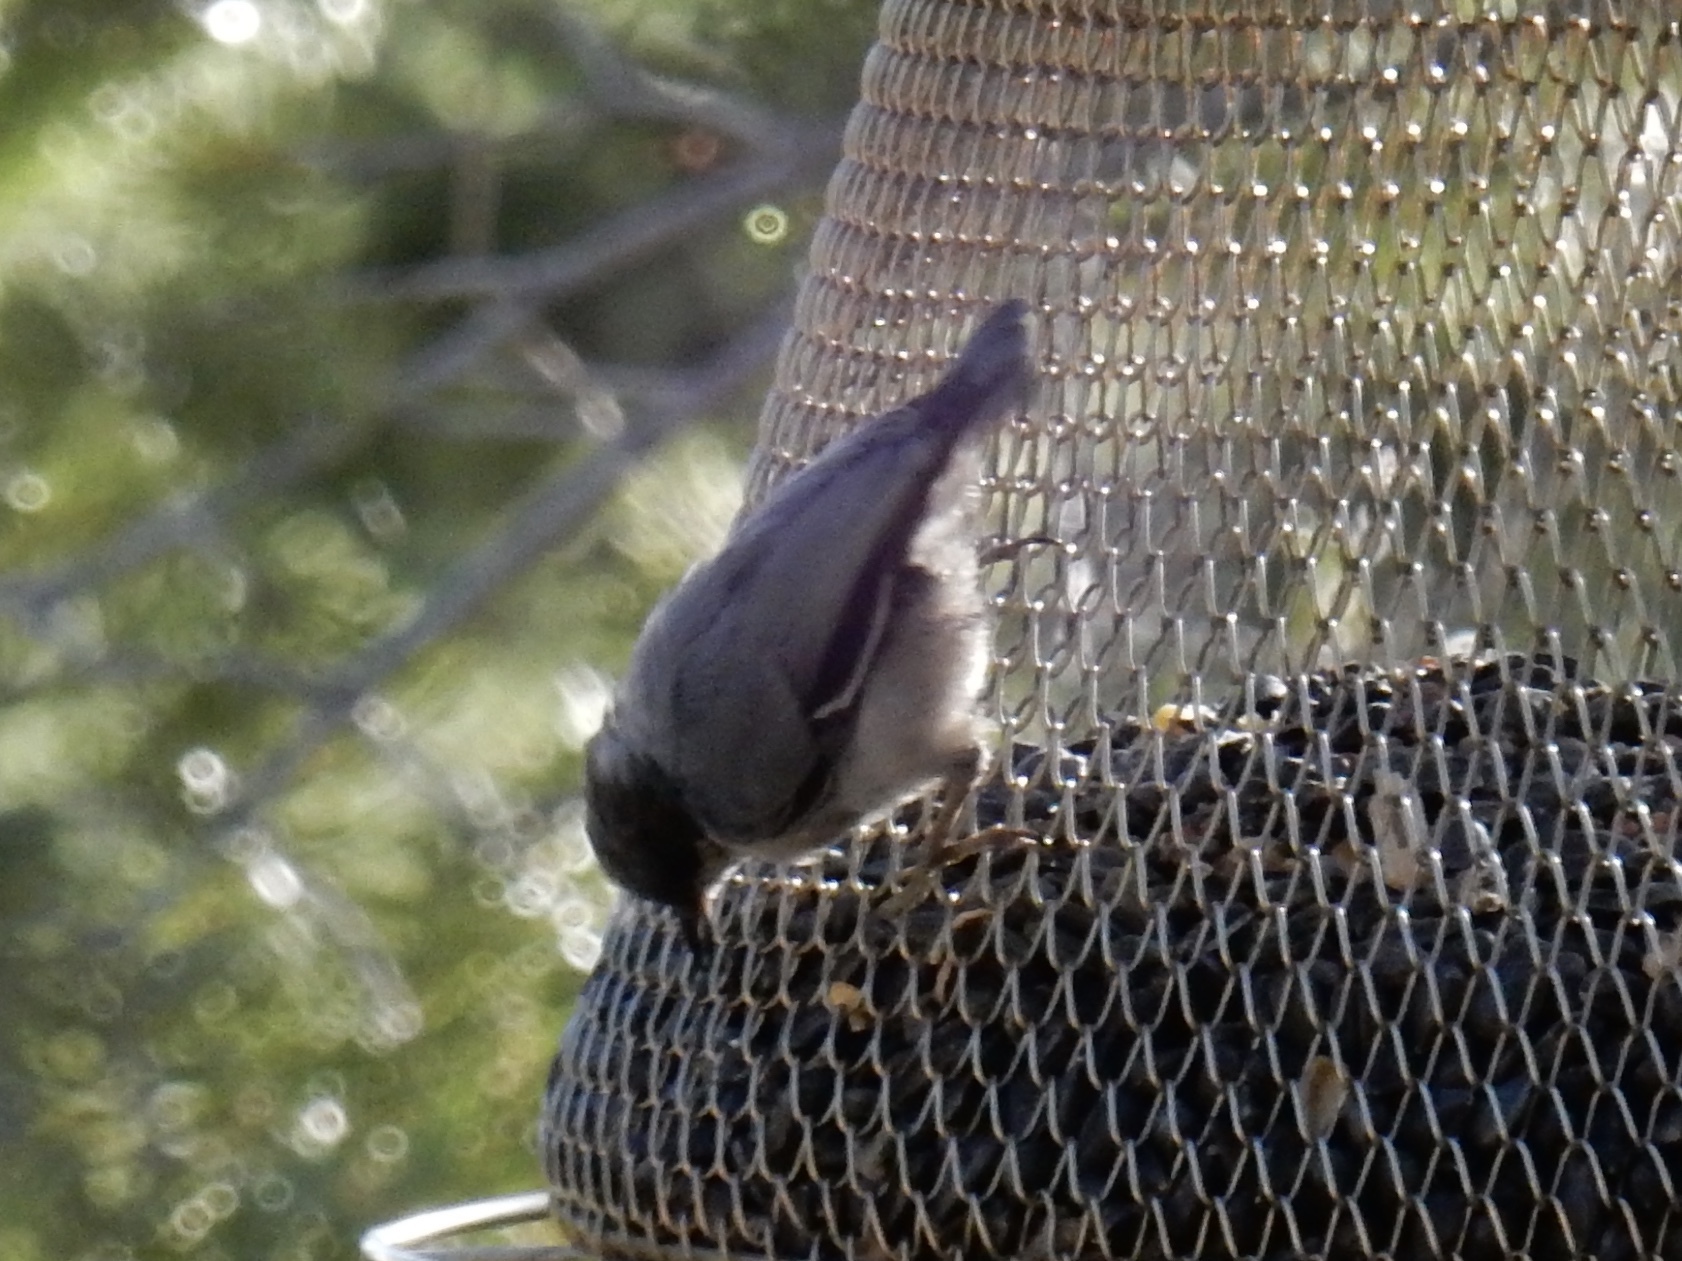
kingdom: Animalia
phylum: Chordata
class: Aves
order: Passeriformes
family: Sittidae
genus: Sitta
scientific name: Sitta pygmaea
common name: Pygmy nuthatch
